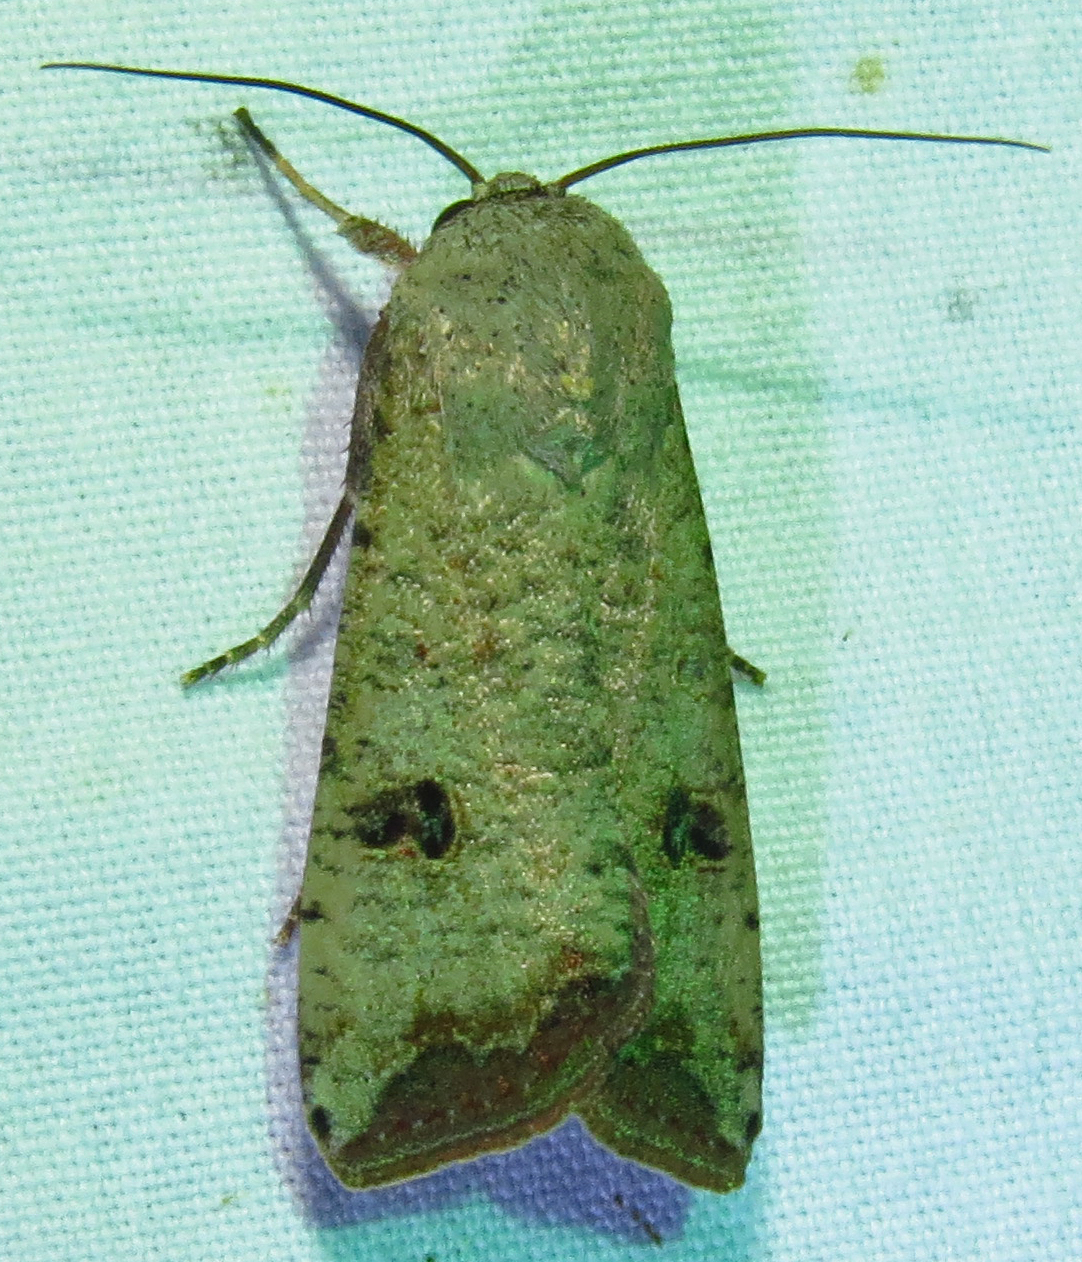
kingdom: Animalia
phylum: Arthropoda
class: Insecta
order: Lepidoptera
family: Noctuidae
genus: Anicla
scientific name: Anicla infecta
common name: Green cutworm
